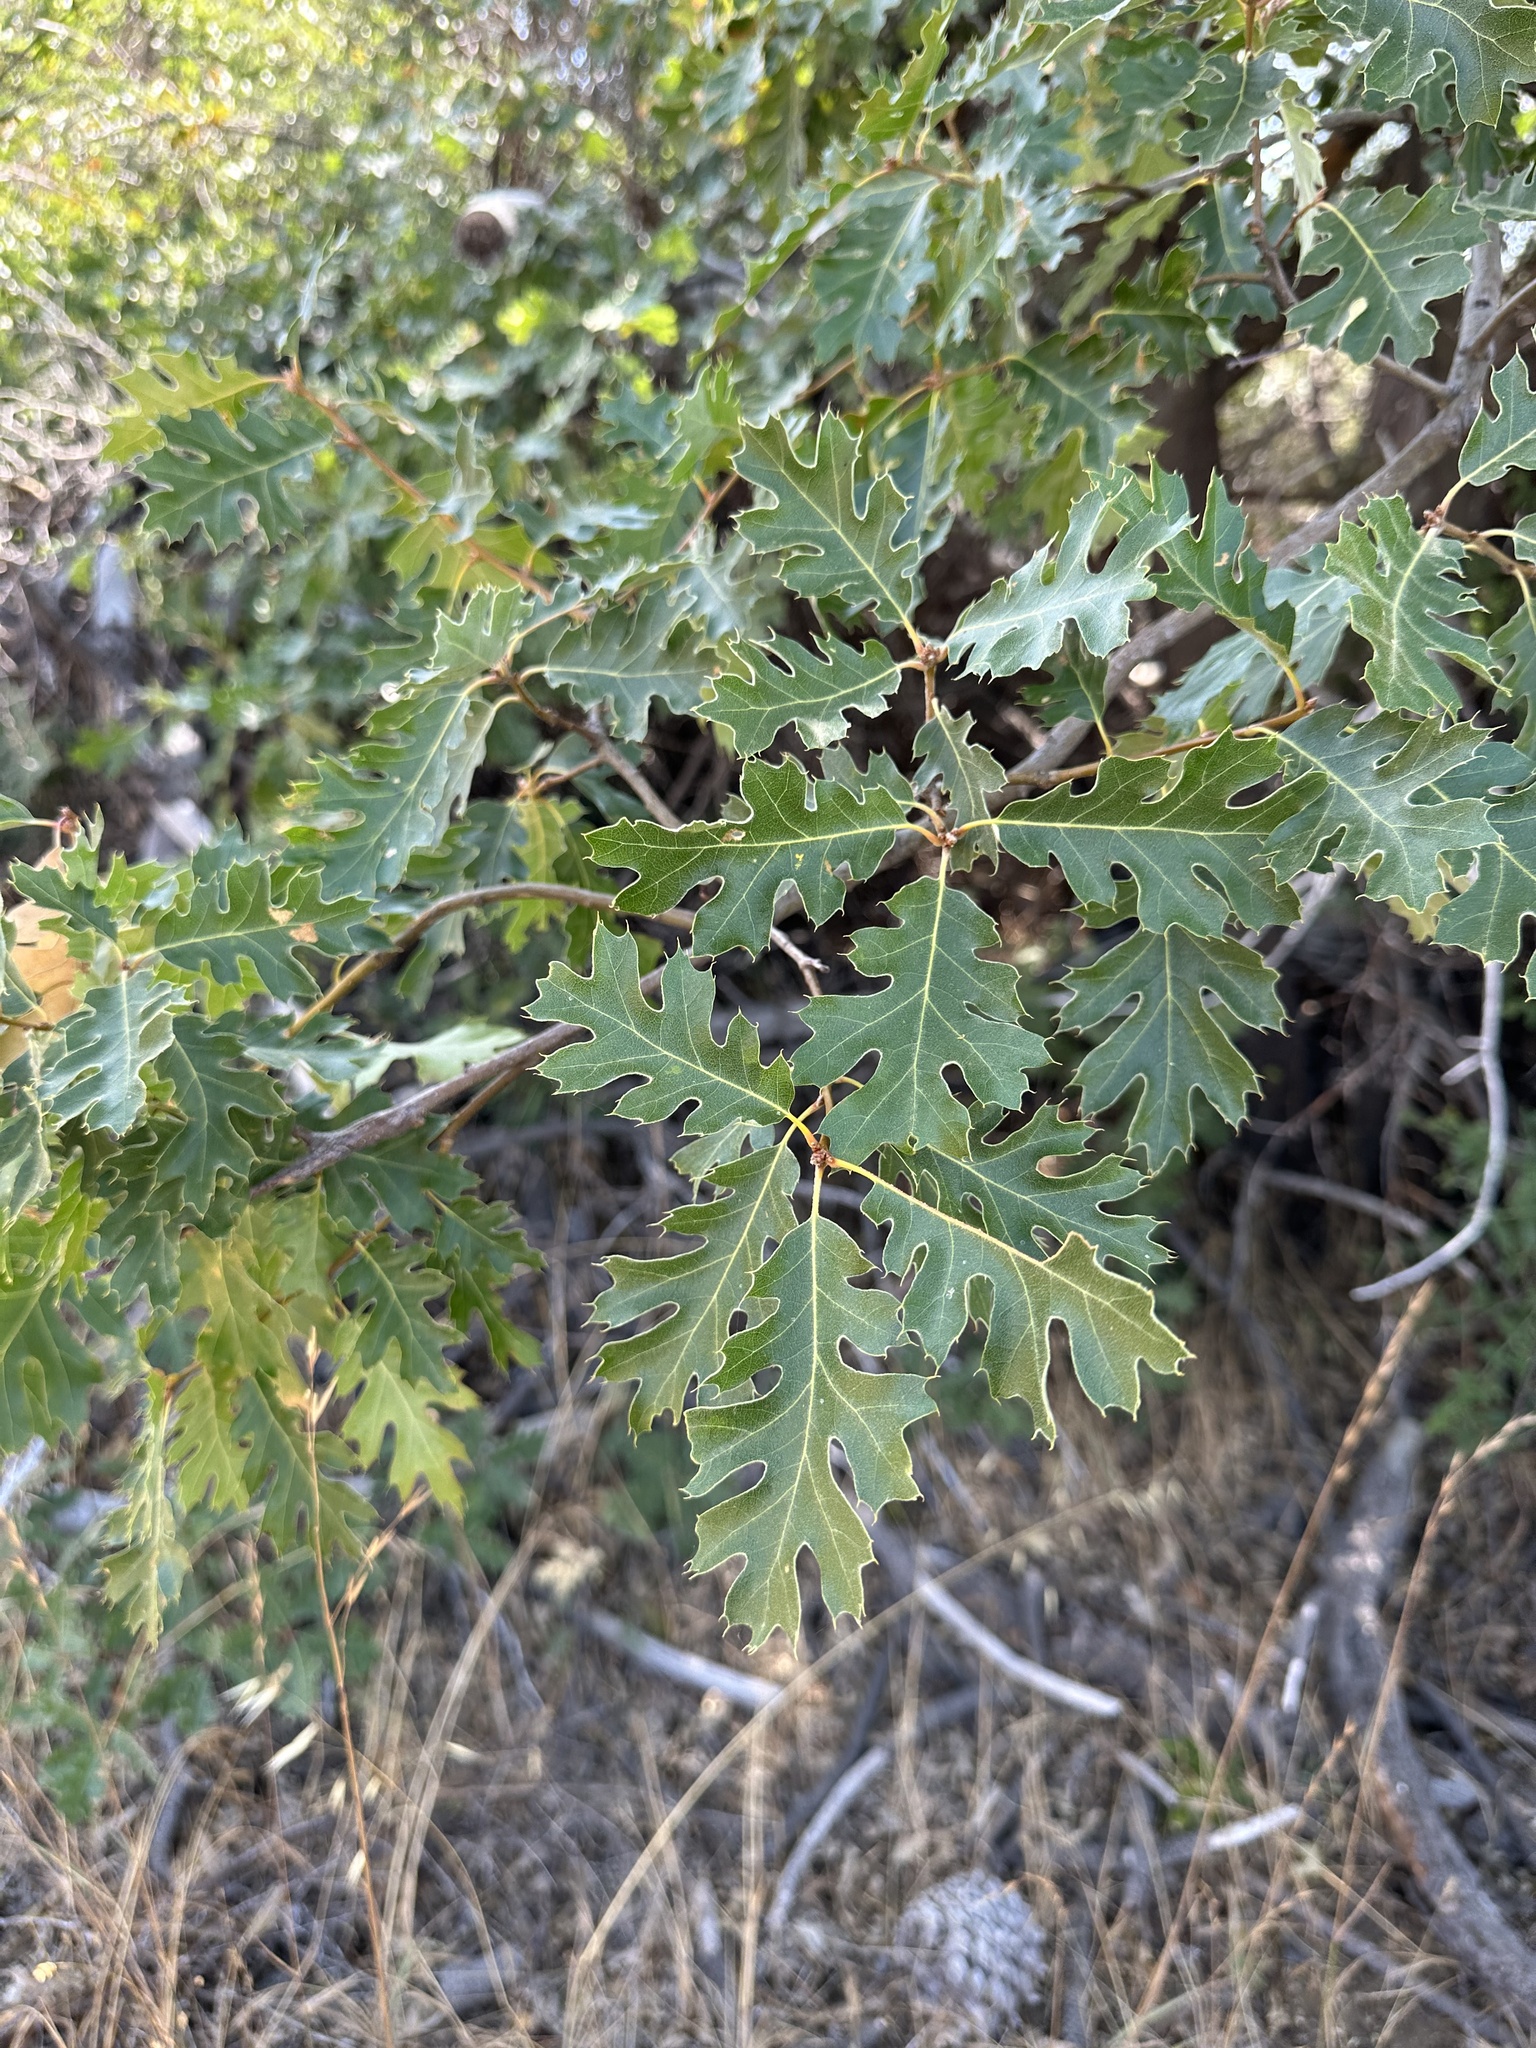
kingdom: Plantae
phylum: Tracheophyta
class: Magnoliopsida
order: Fagales
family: Fagaceae
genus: Quercus
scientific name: Quercus kelloggii
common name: California black oak
